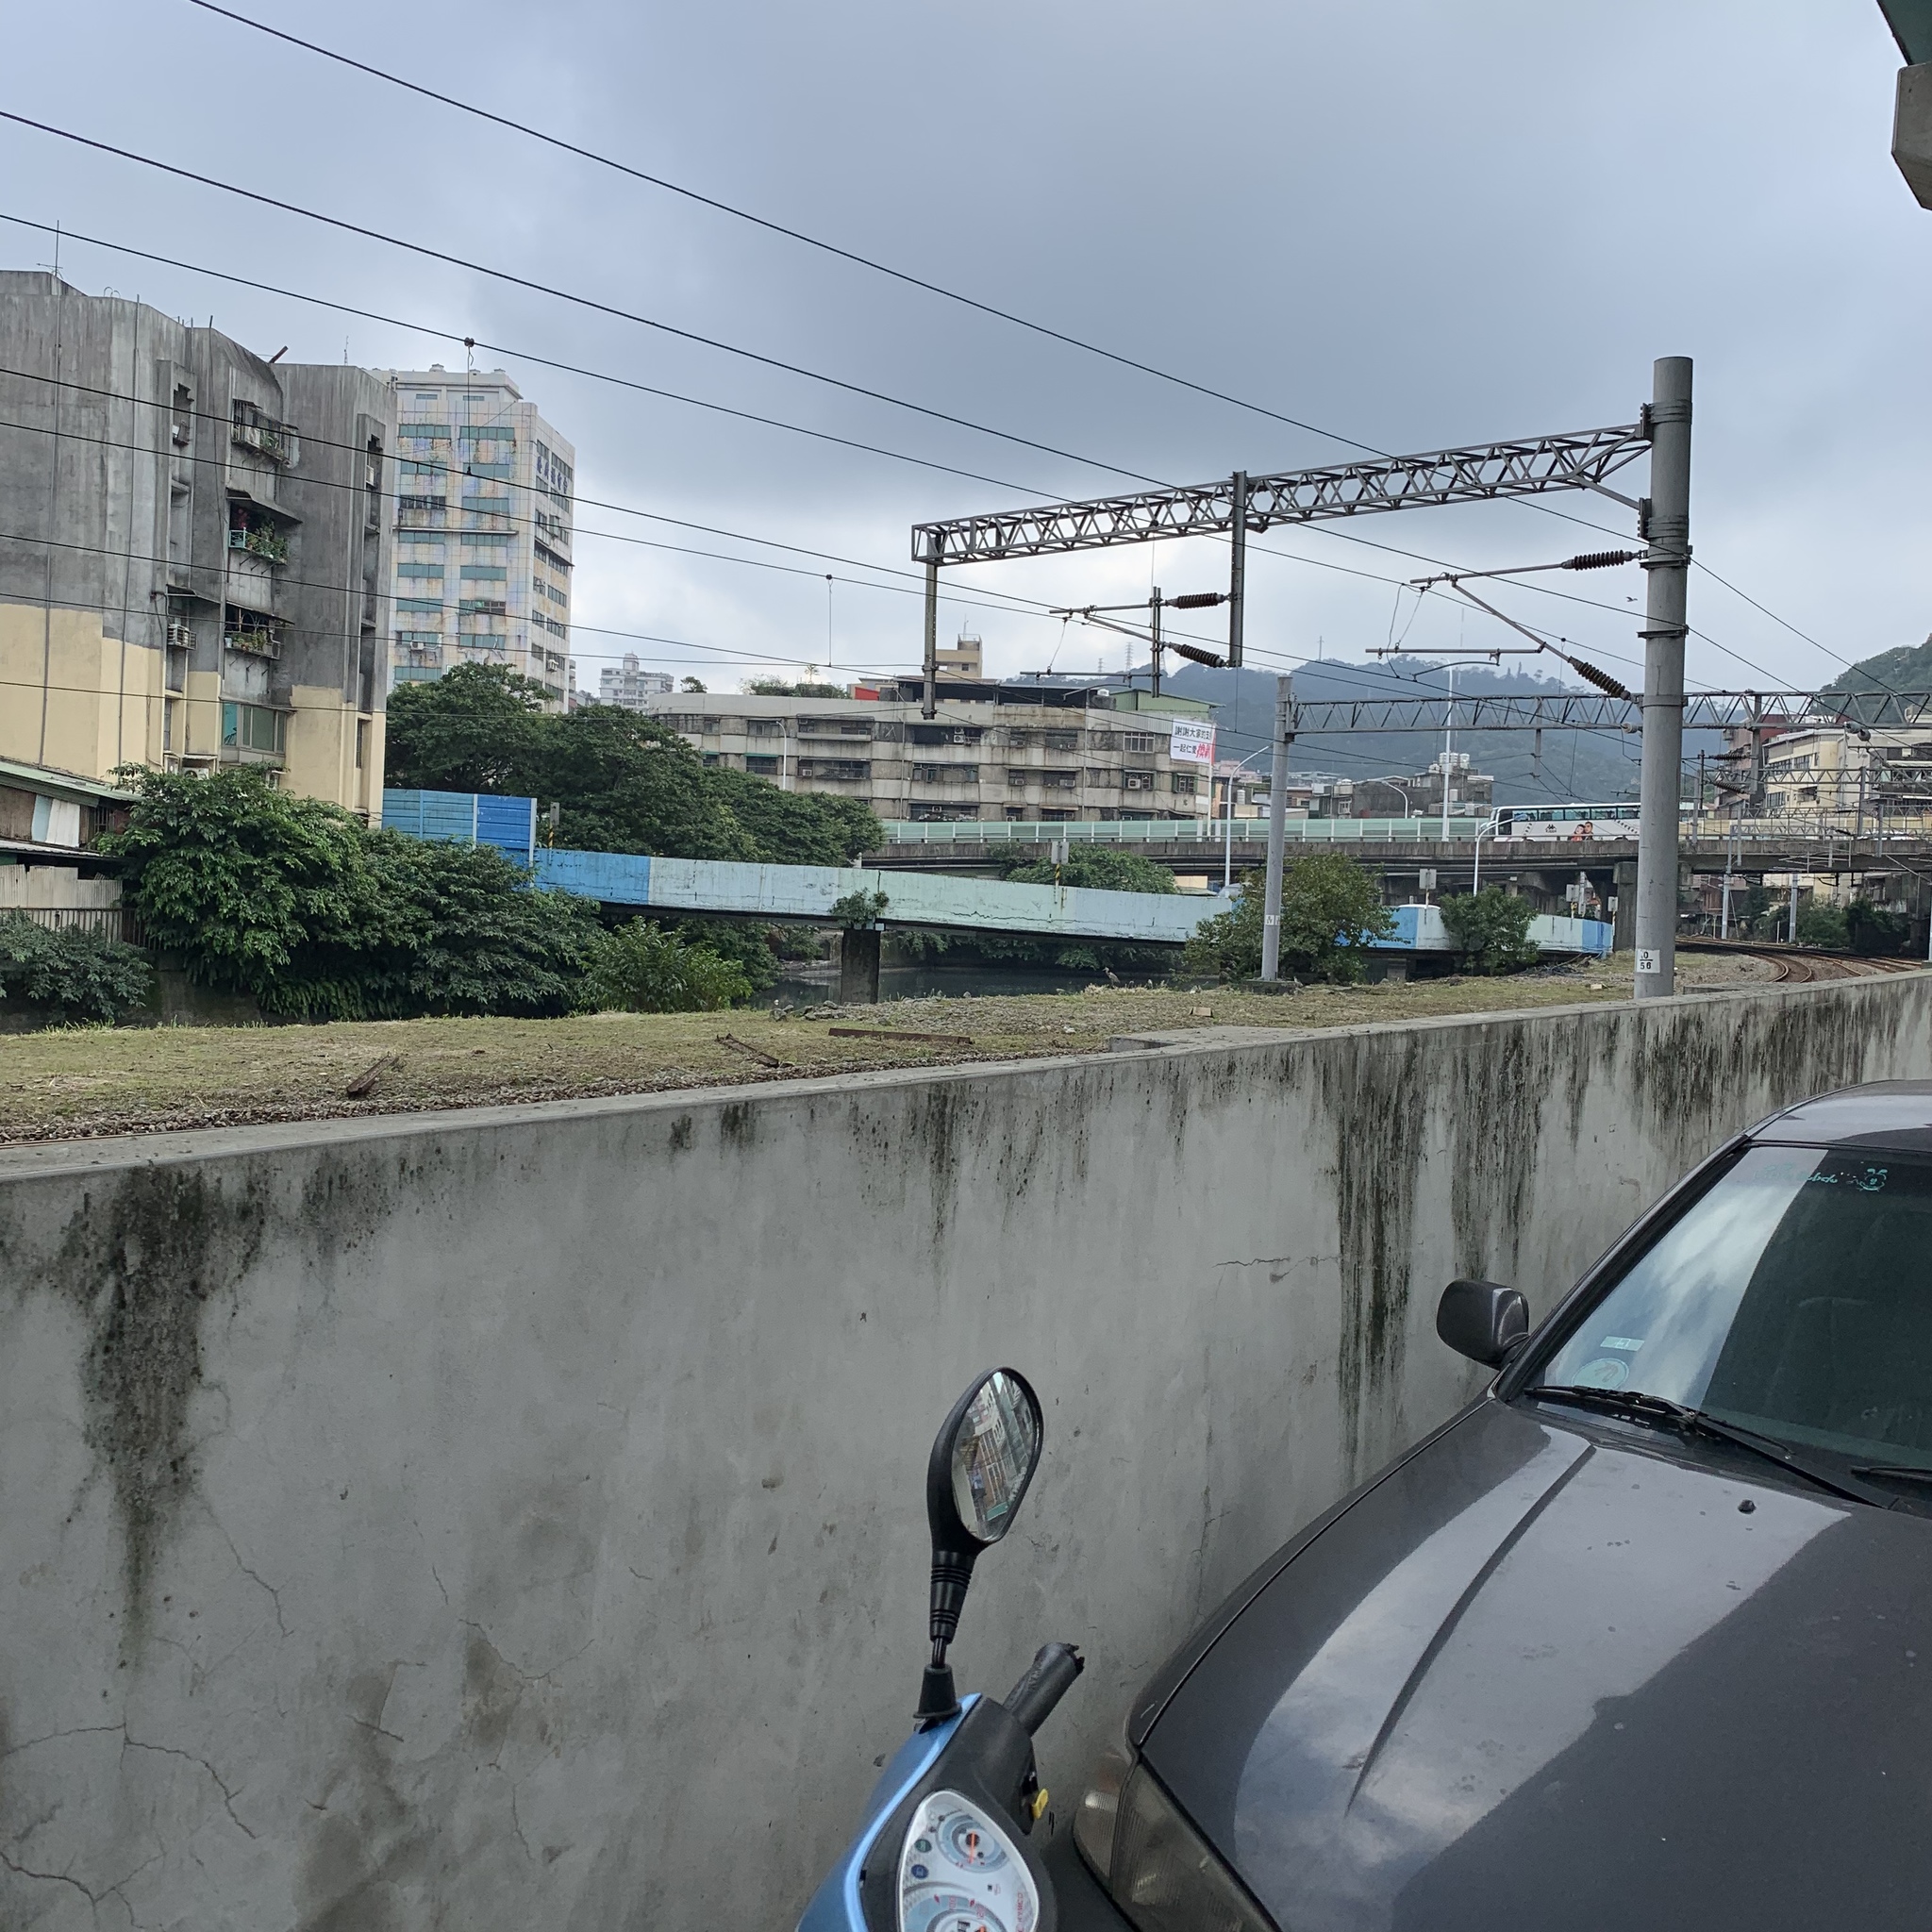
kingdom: Animalia
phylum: Chordata
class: Aves
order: Pelecaniformes
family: Ardeidae
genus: Ardea
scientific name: Ardea cinerea
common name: Grey heron
